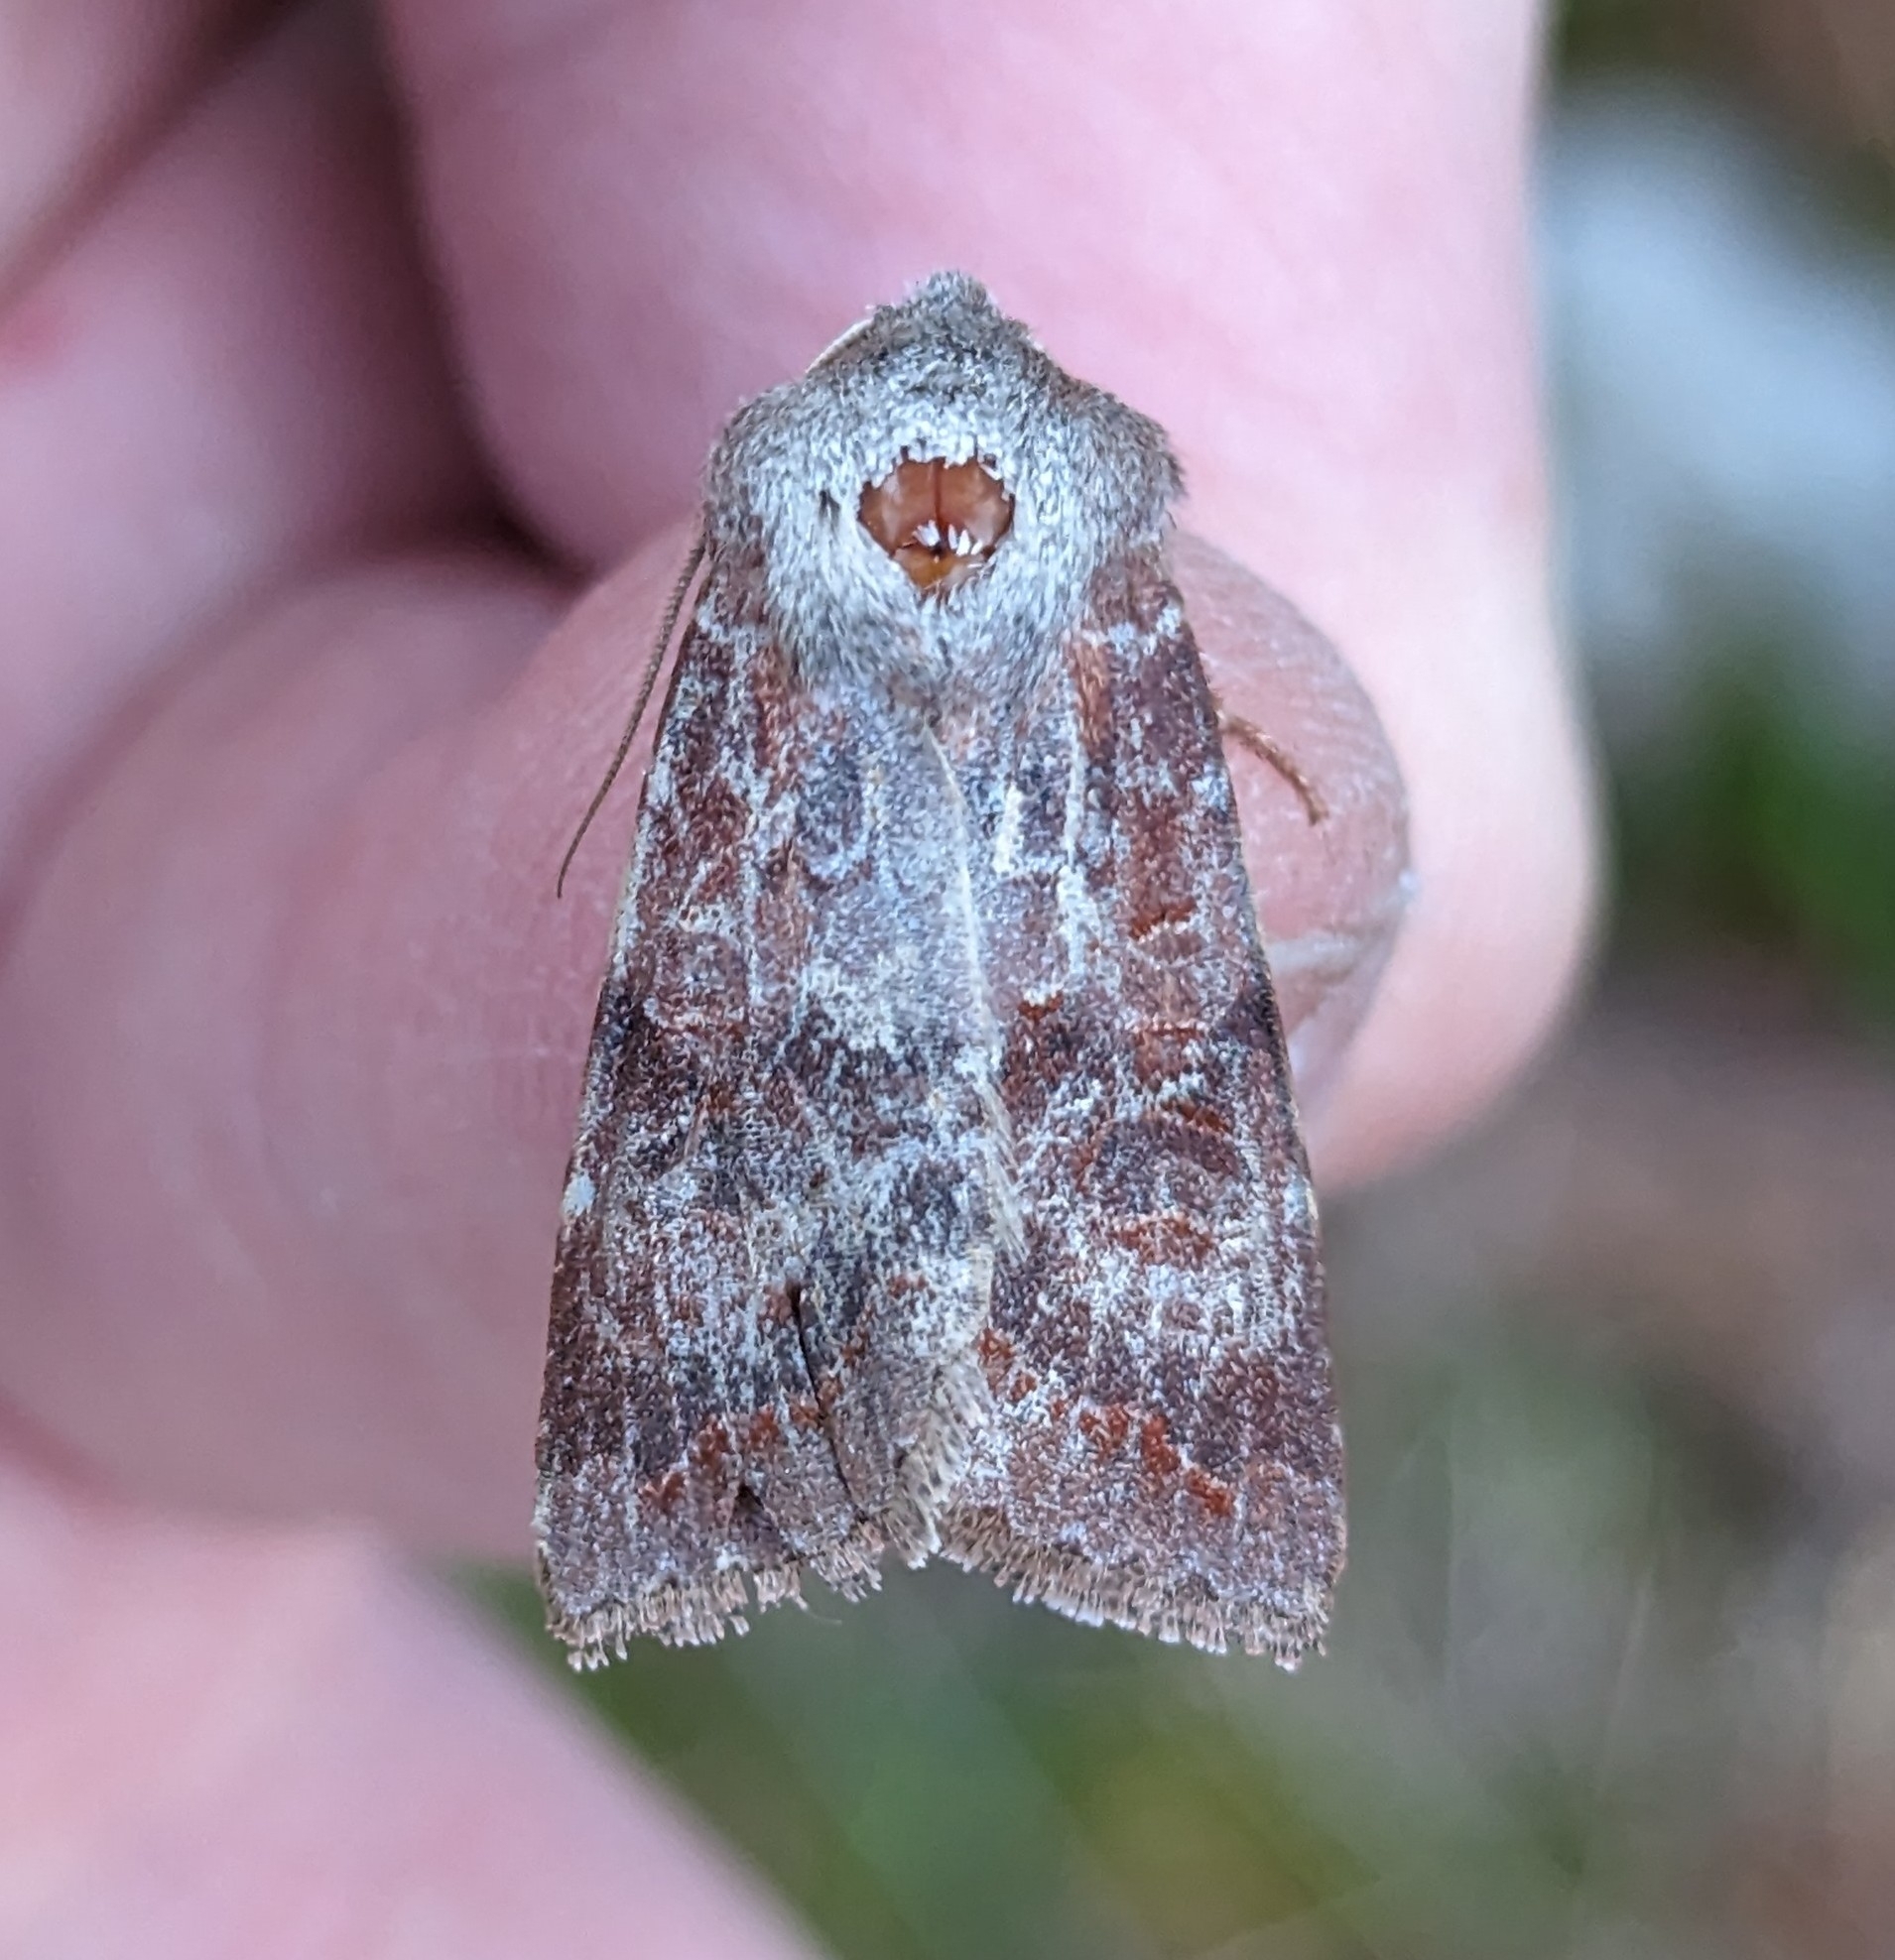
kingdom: Animalia
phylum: Arthropoda
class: Insecta
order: Lepidoptera
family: Noctuidae
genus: Orthosia
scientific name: Orthosia revicta
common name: Rusty whitesided caterpillar
